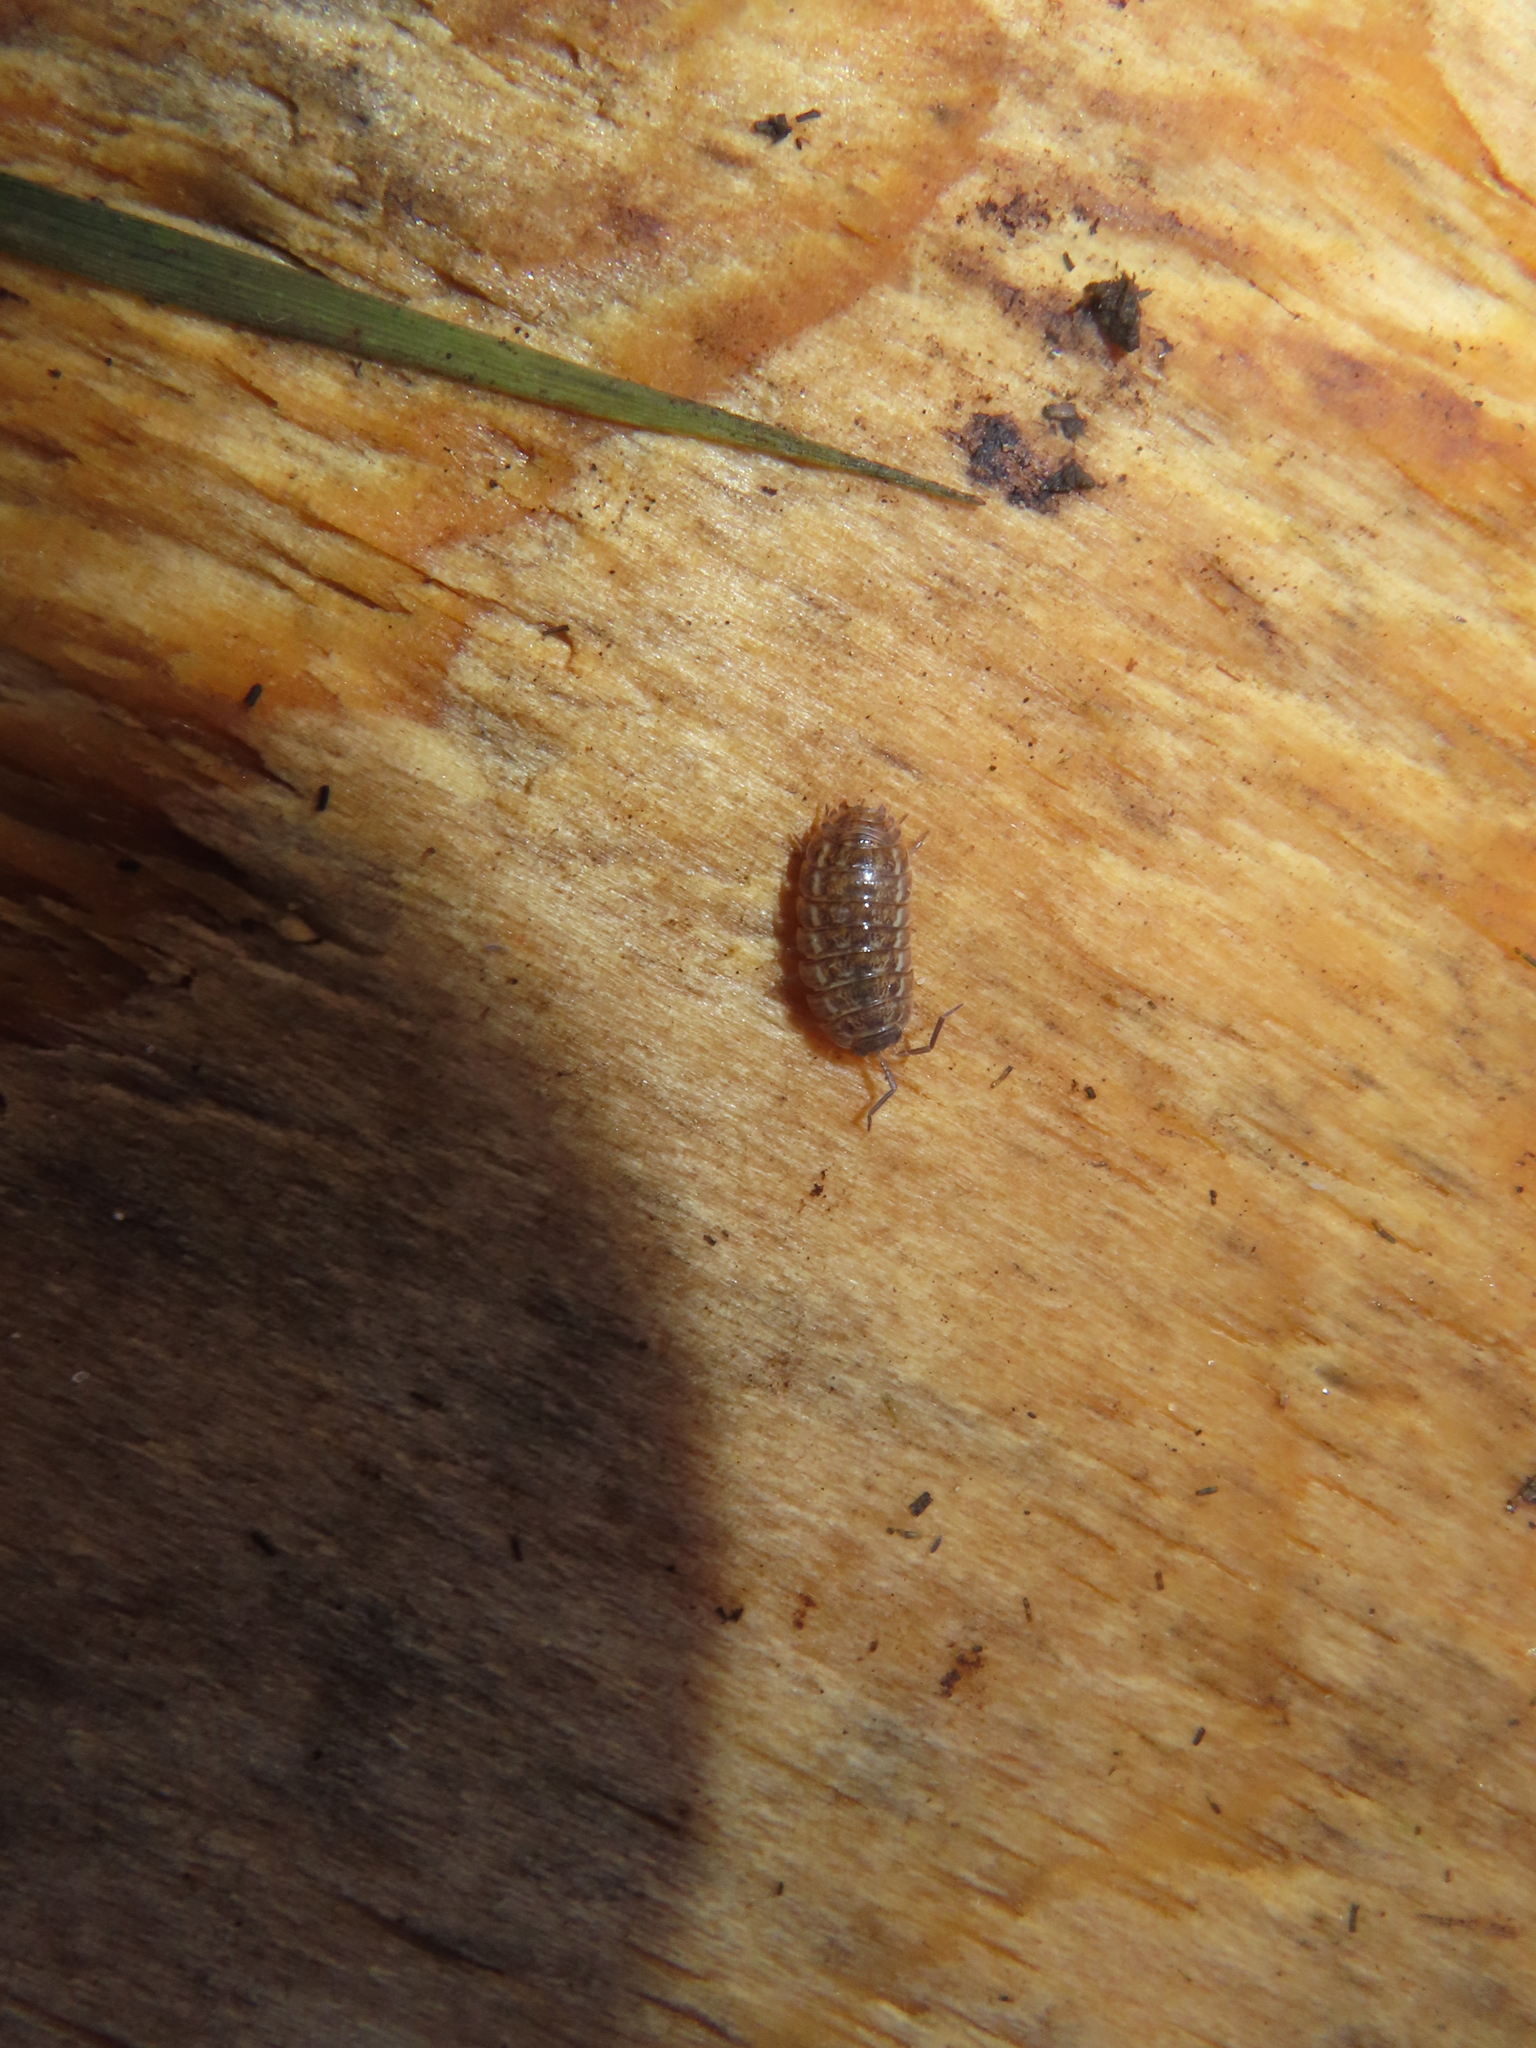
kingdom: Animalia
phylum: Arthropoda
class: Malacostraca
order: Isopoda
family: Trachelipodidae
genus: Trachelipus
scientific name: Trachelipus rathkii
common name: Isopod
